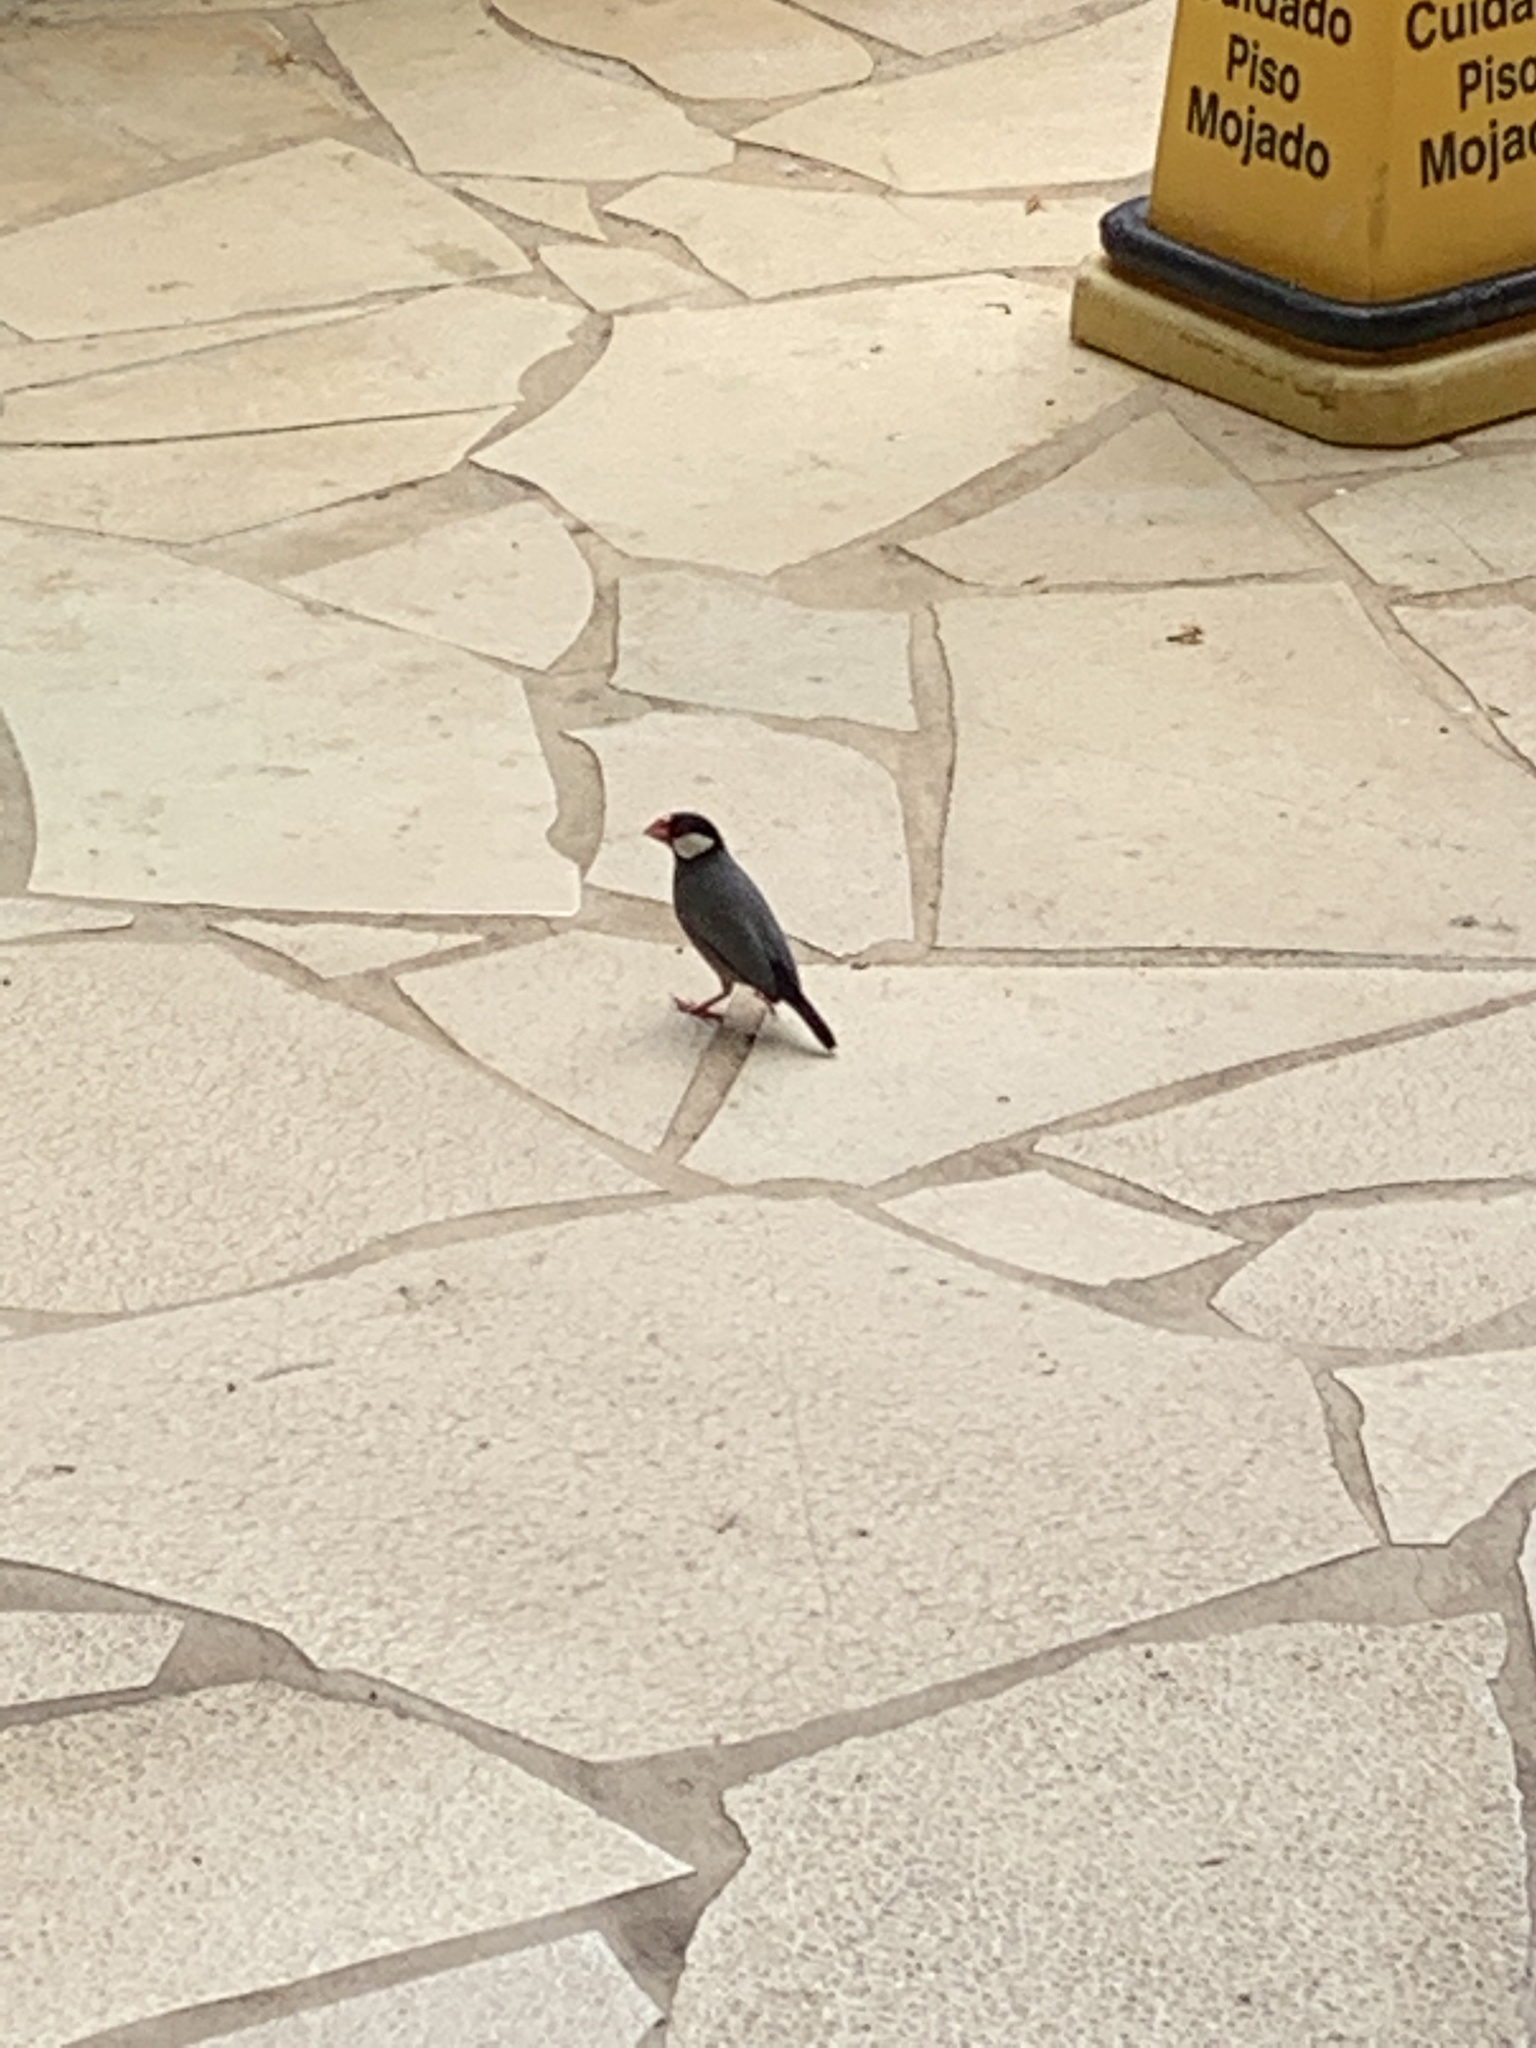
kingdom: Animalia
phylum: Chordata
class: Aves
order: Passeriformes
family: Estrildidae
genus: Lonchura
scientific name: Lonchura oryzivora
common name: Java sparrow
